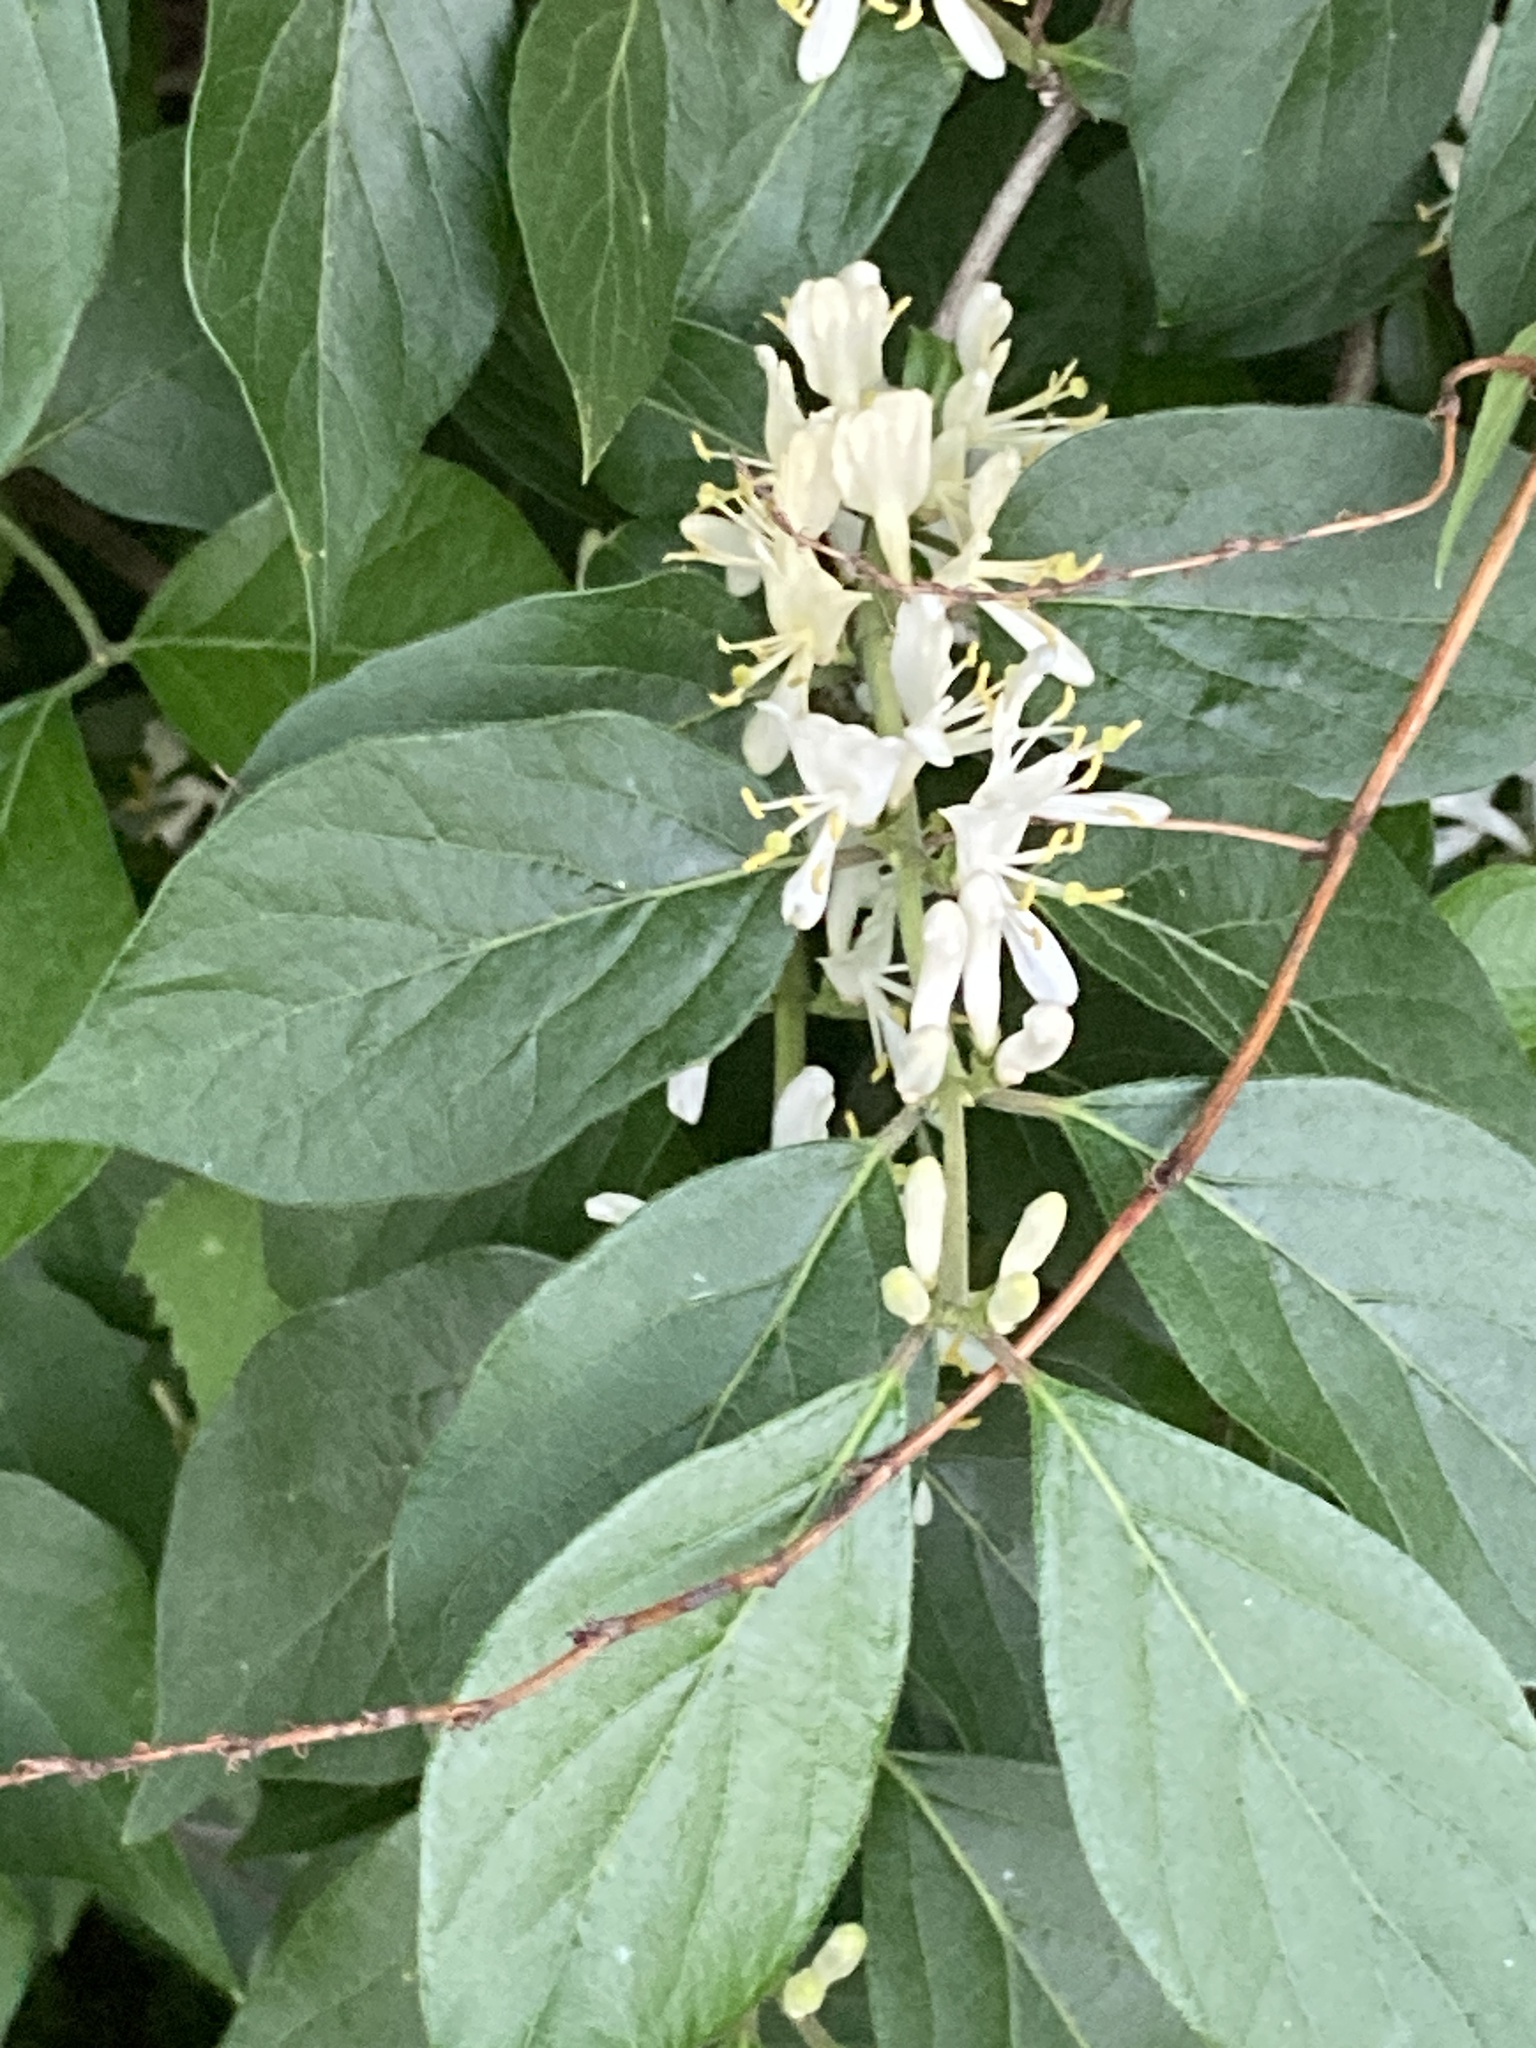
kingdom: Plantae
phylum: Tracheophyta
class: Magnoliopsida
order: Dipsacales
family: Caprifoliaceae
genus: Lonicera
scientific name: Lonicera maackii
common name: Amur honeysuckle
